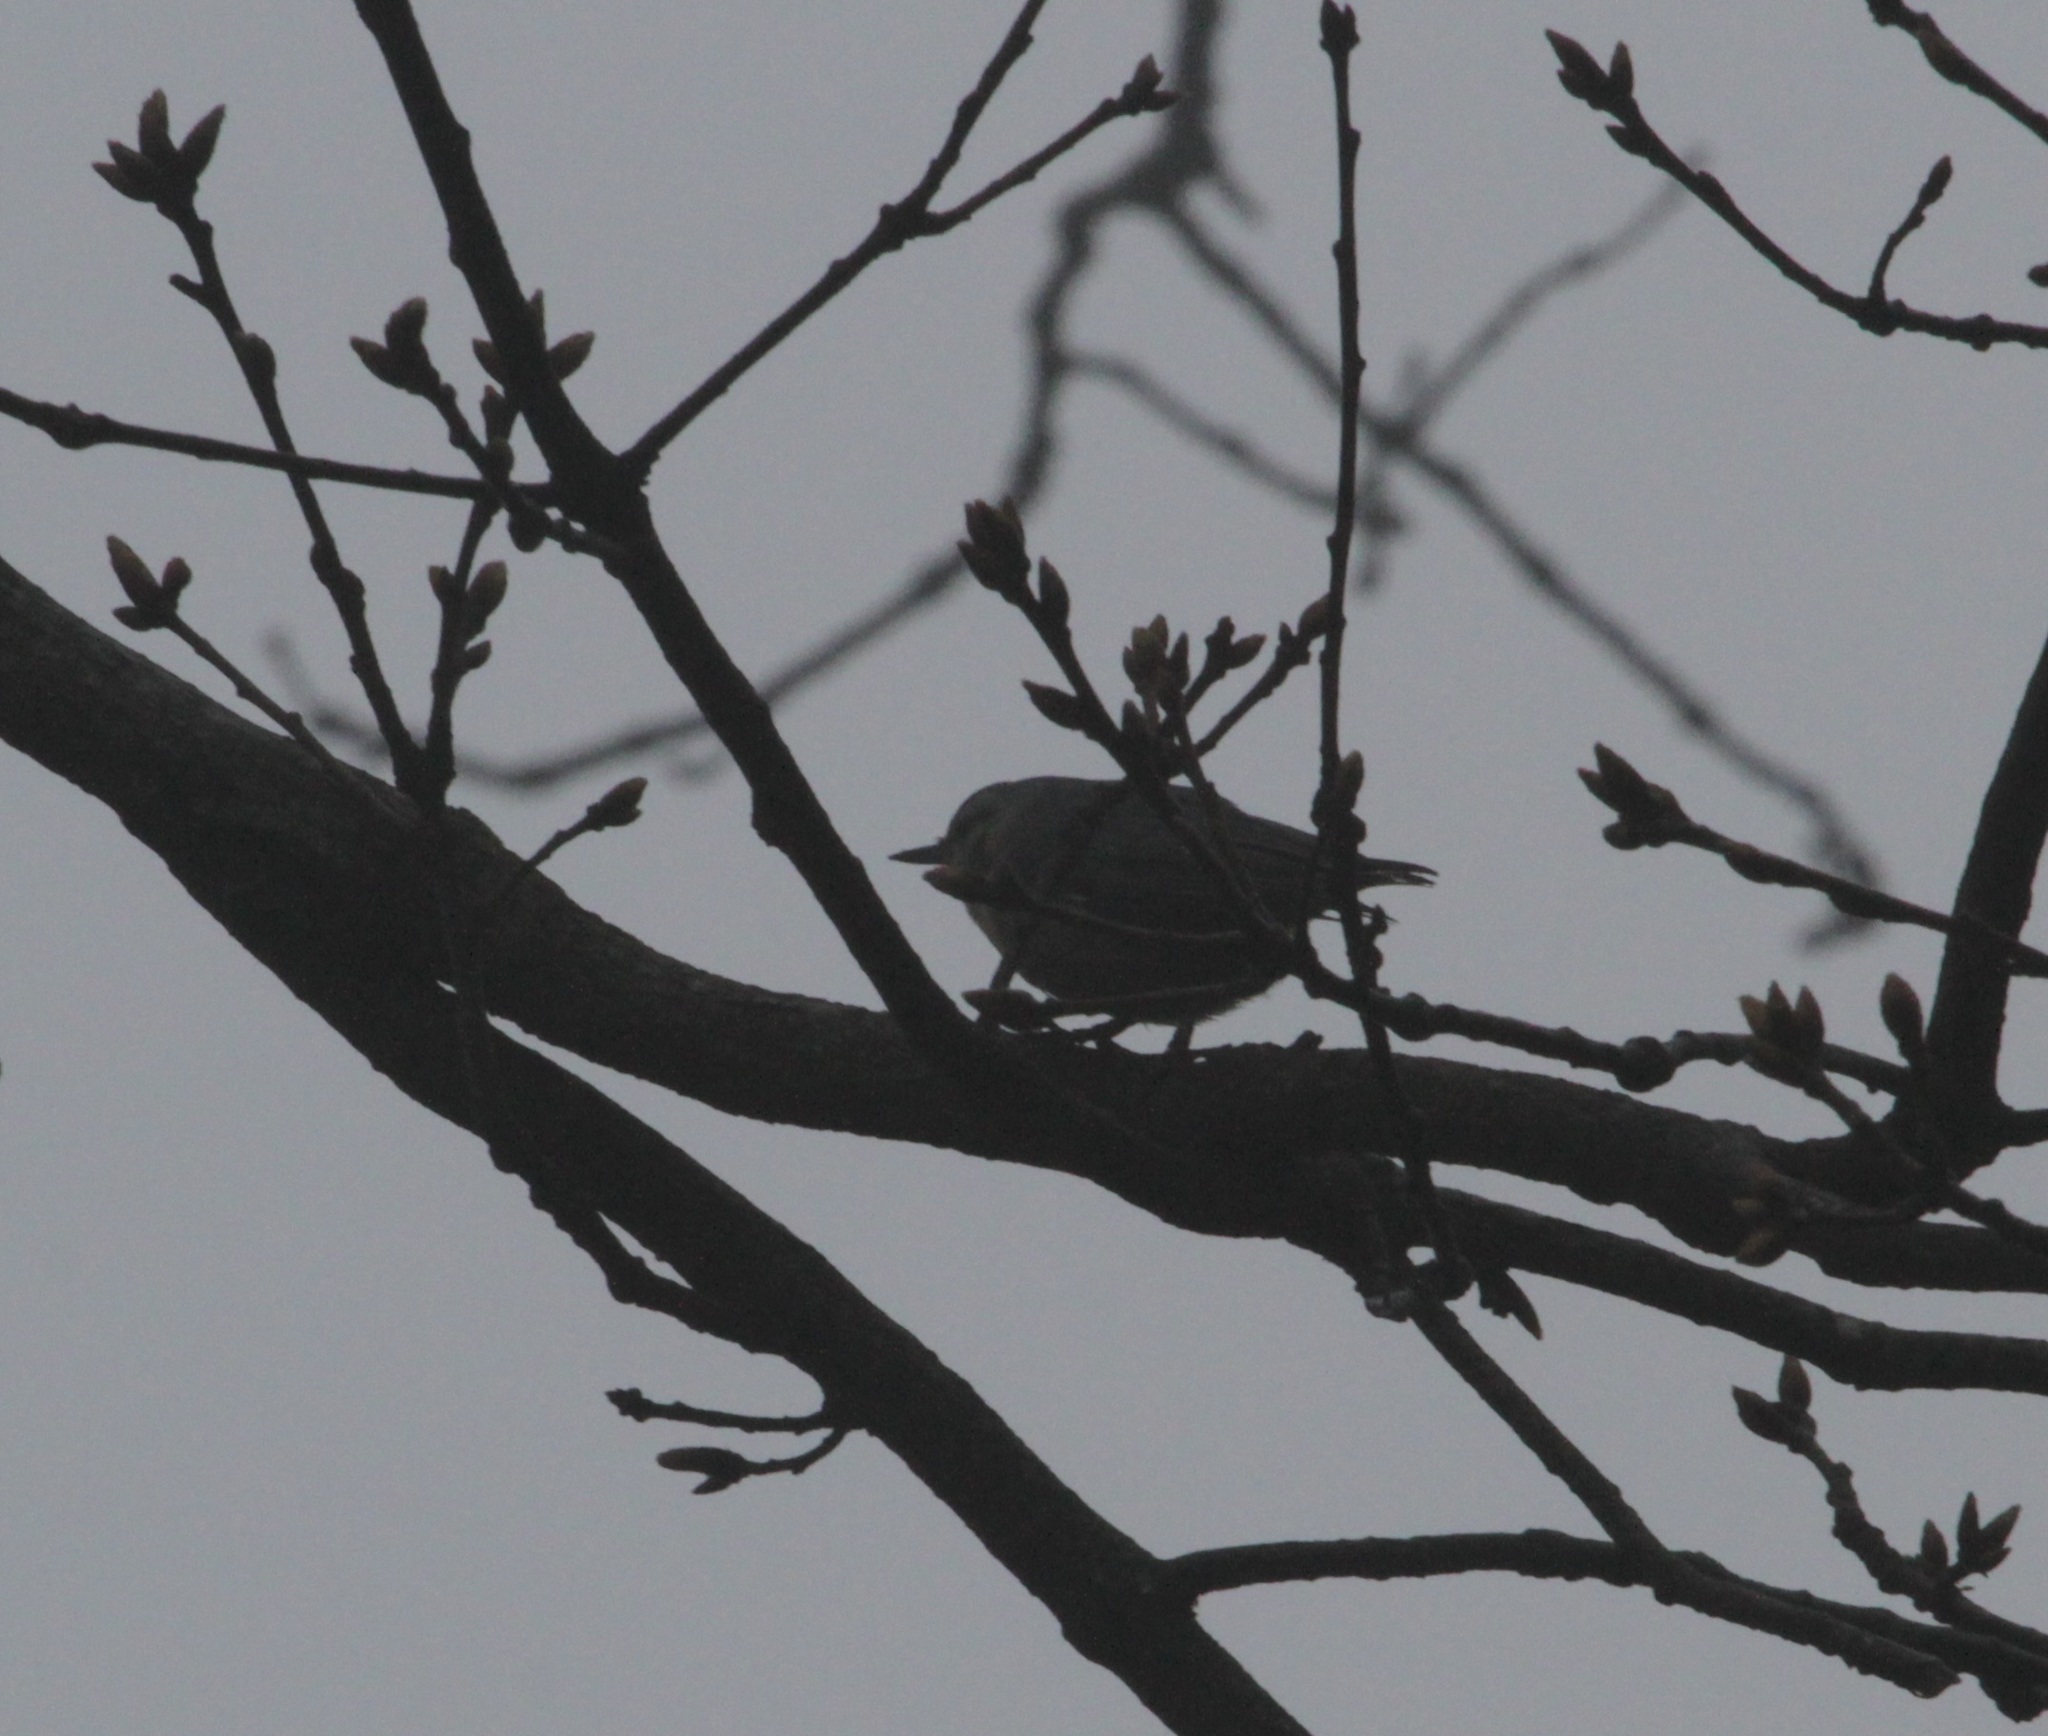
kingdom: Animalia
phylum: Chordata
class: Aves
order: Passeriformes
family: Sittidae
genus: Sitta
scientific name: Sitta ledanti
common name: Algerian nuthatch
